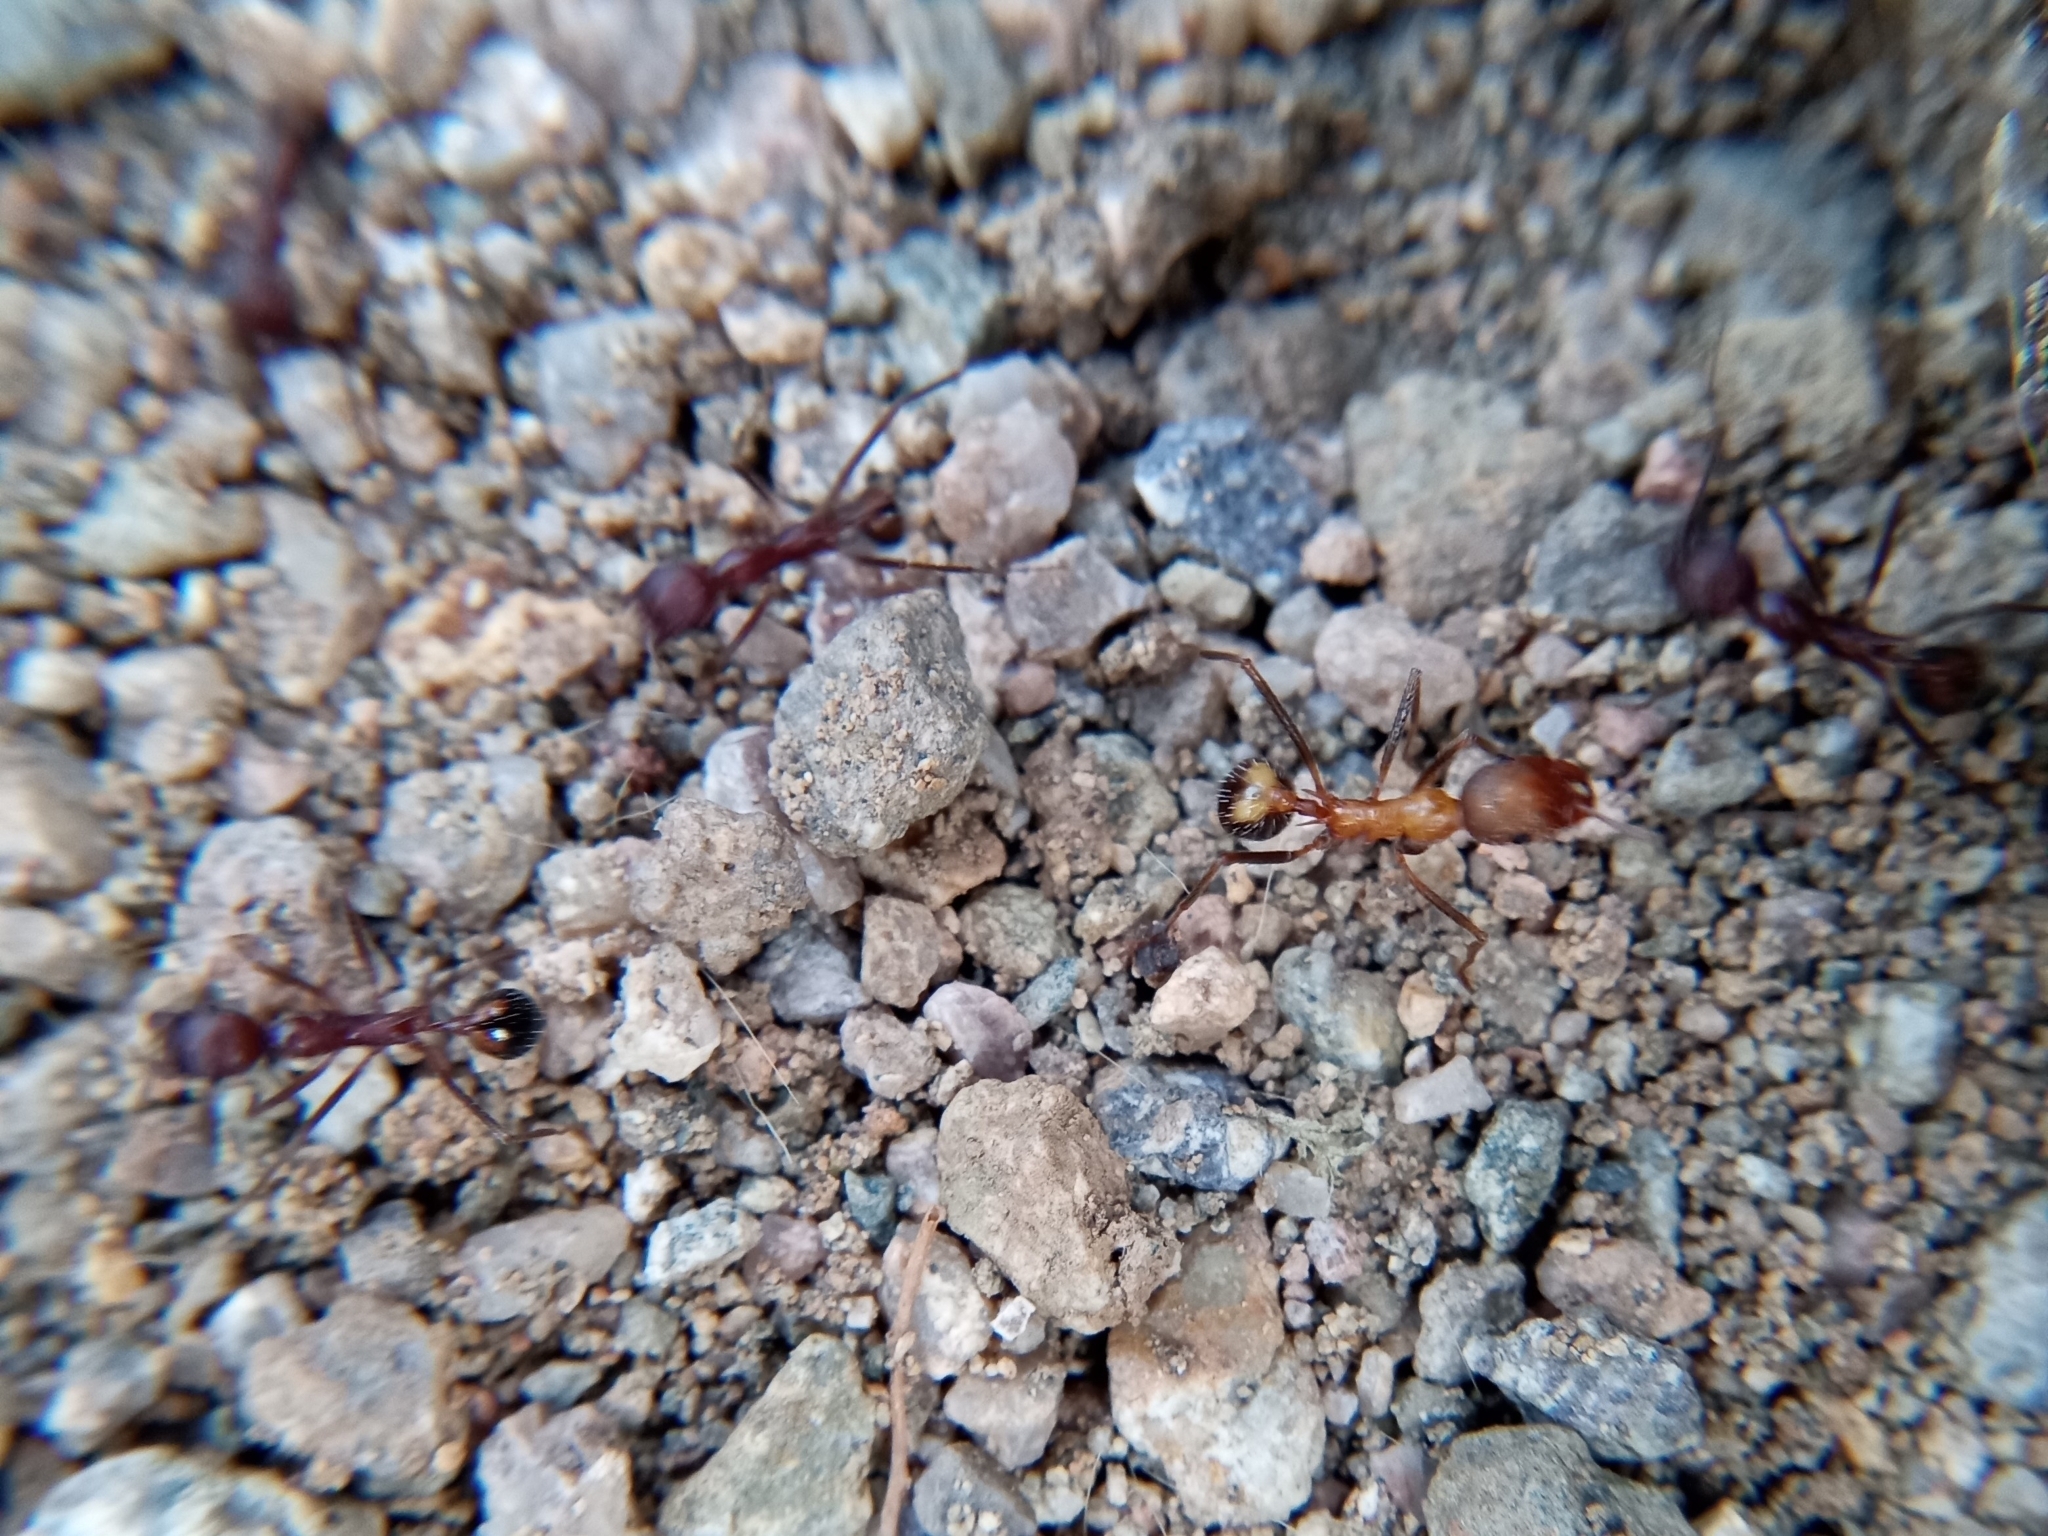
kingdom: Animalia
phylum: Arthropoda
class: Insecta
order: Hymenoptera
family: Formicidae
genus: Novomessor
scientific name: Novomessor albisetosa
